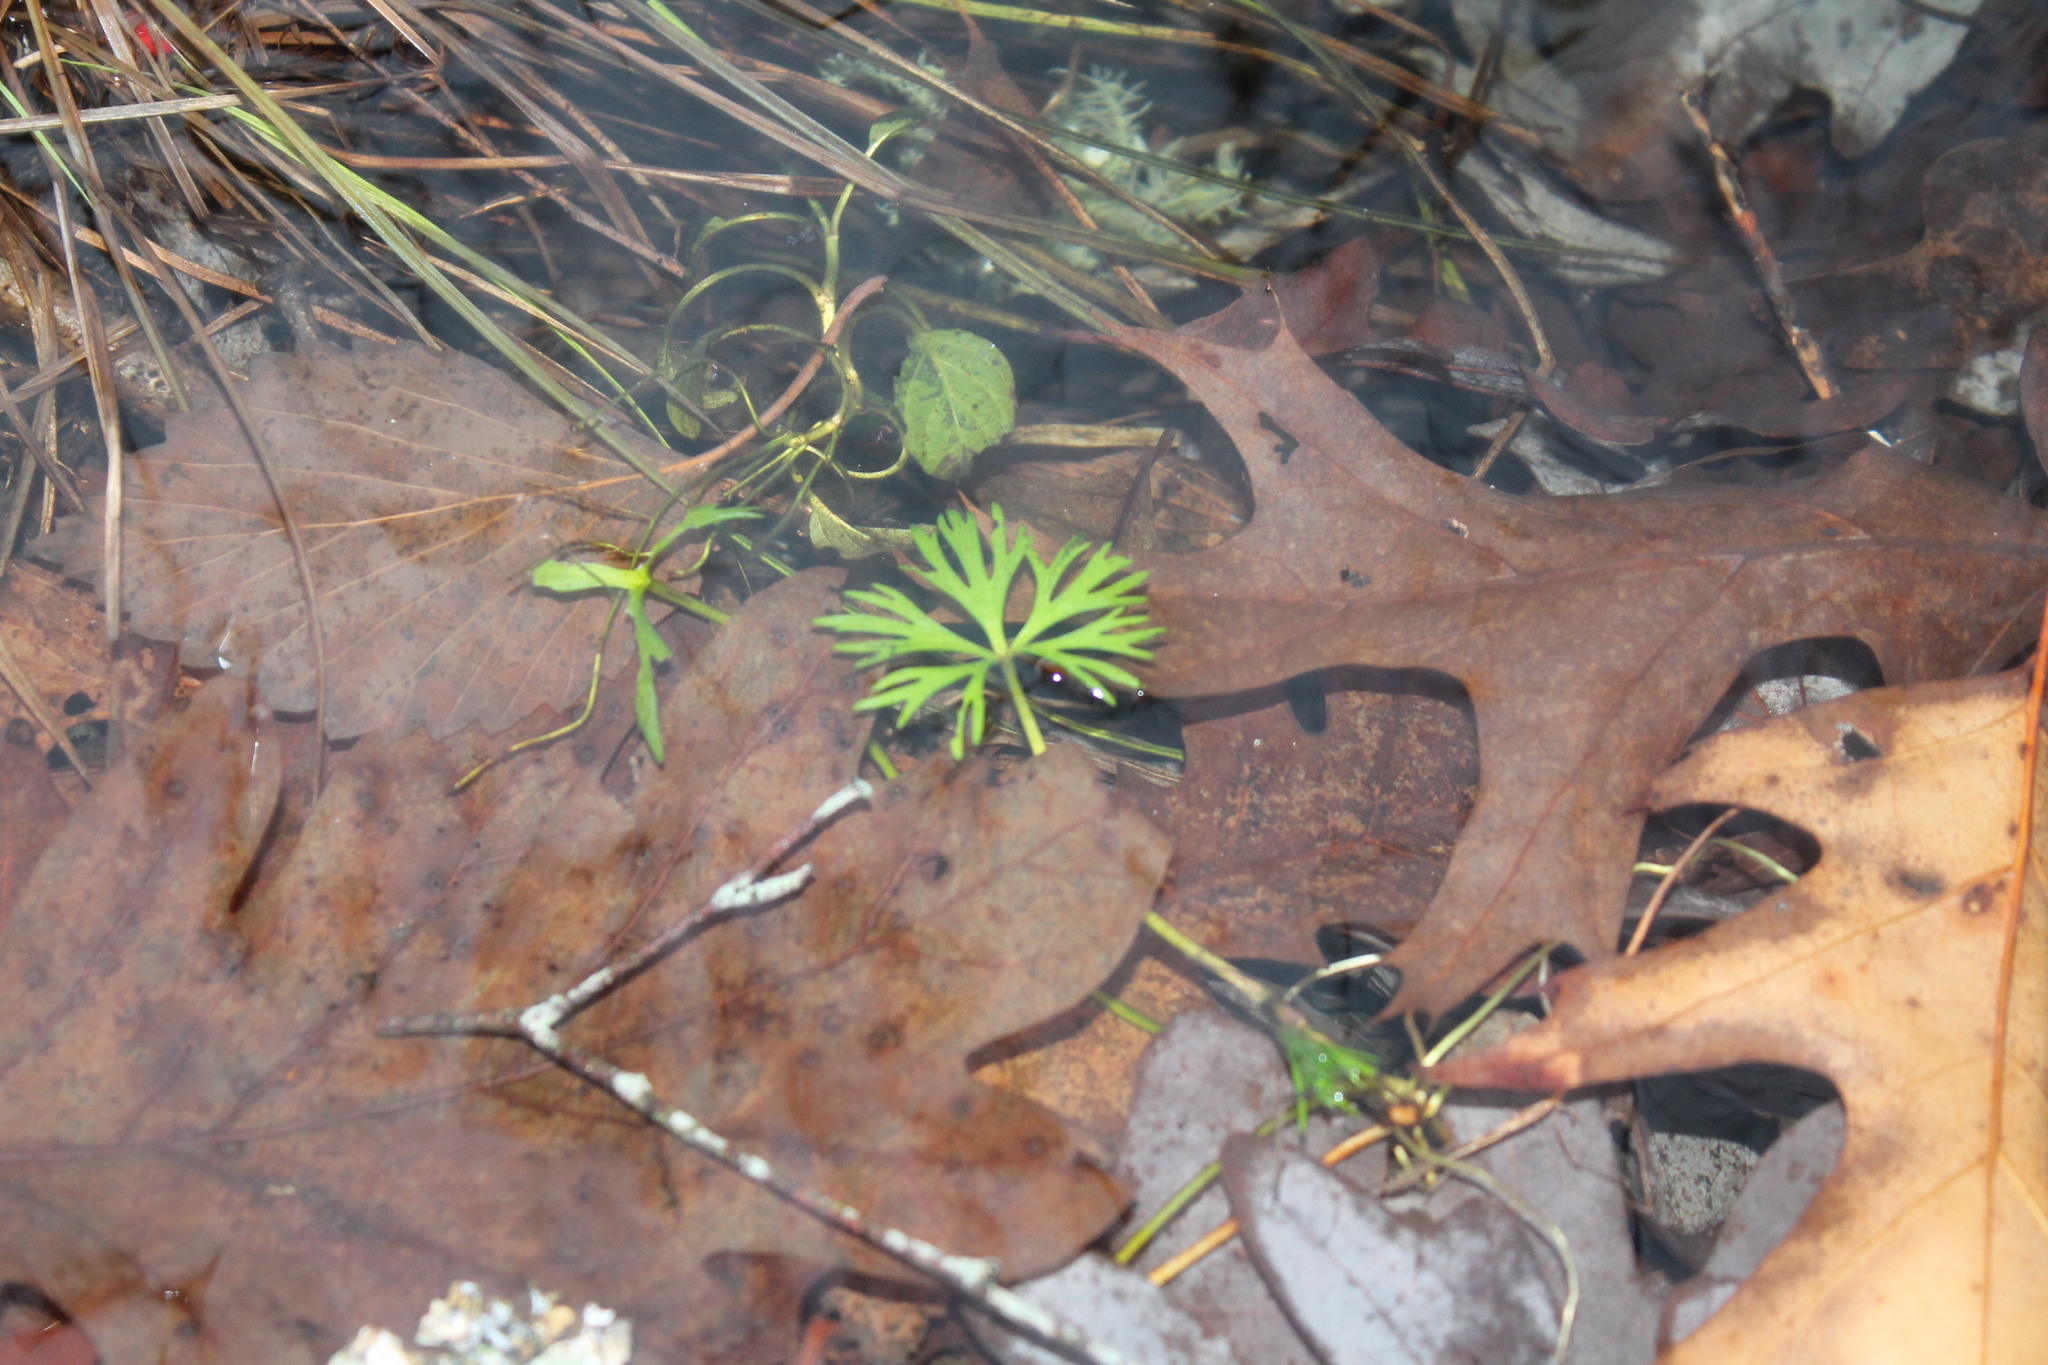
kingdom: Plantae
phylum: Tracheophyta
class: Magnoliopsida
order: Ranunculales
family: Ranunculaceae
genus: Ranunculus
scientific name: Ranunculus flabellaris
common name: Yellow water-crowfoot
